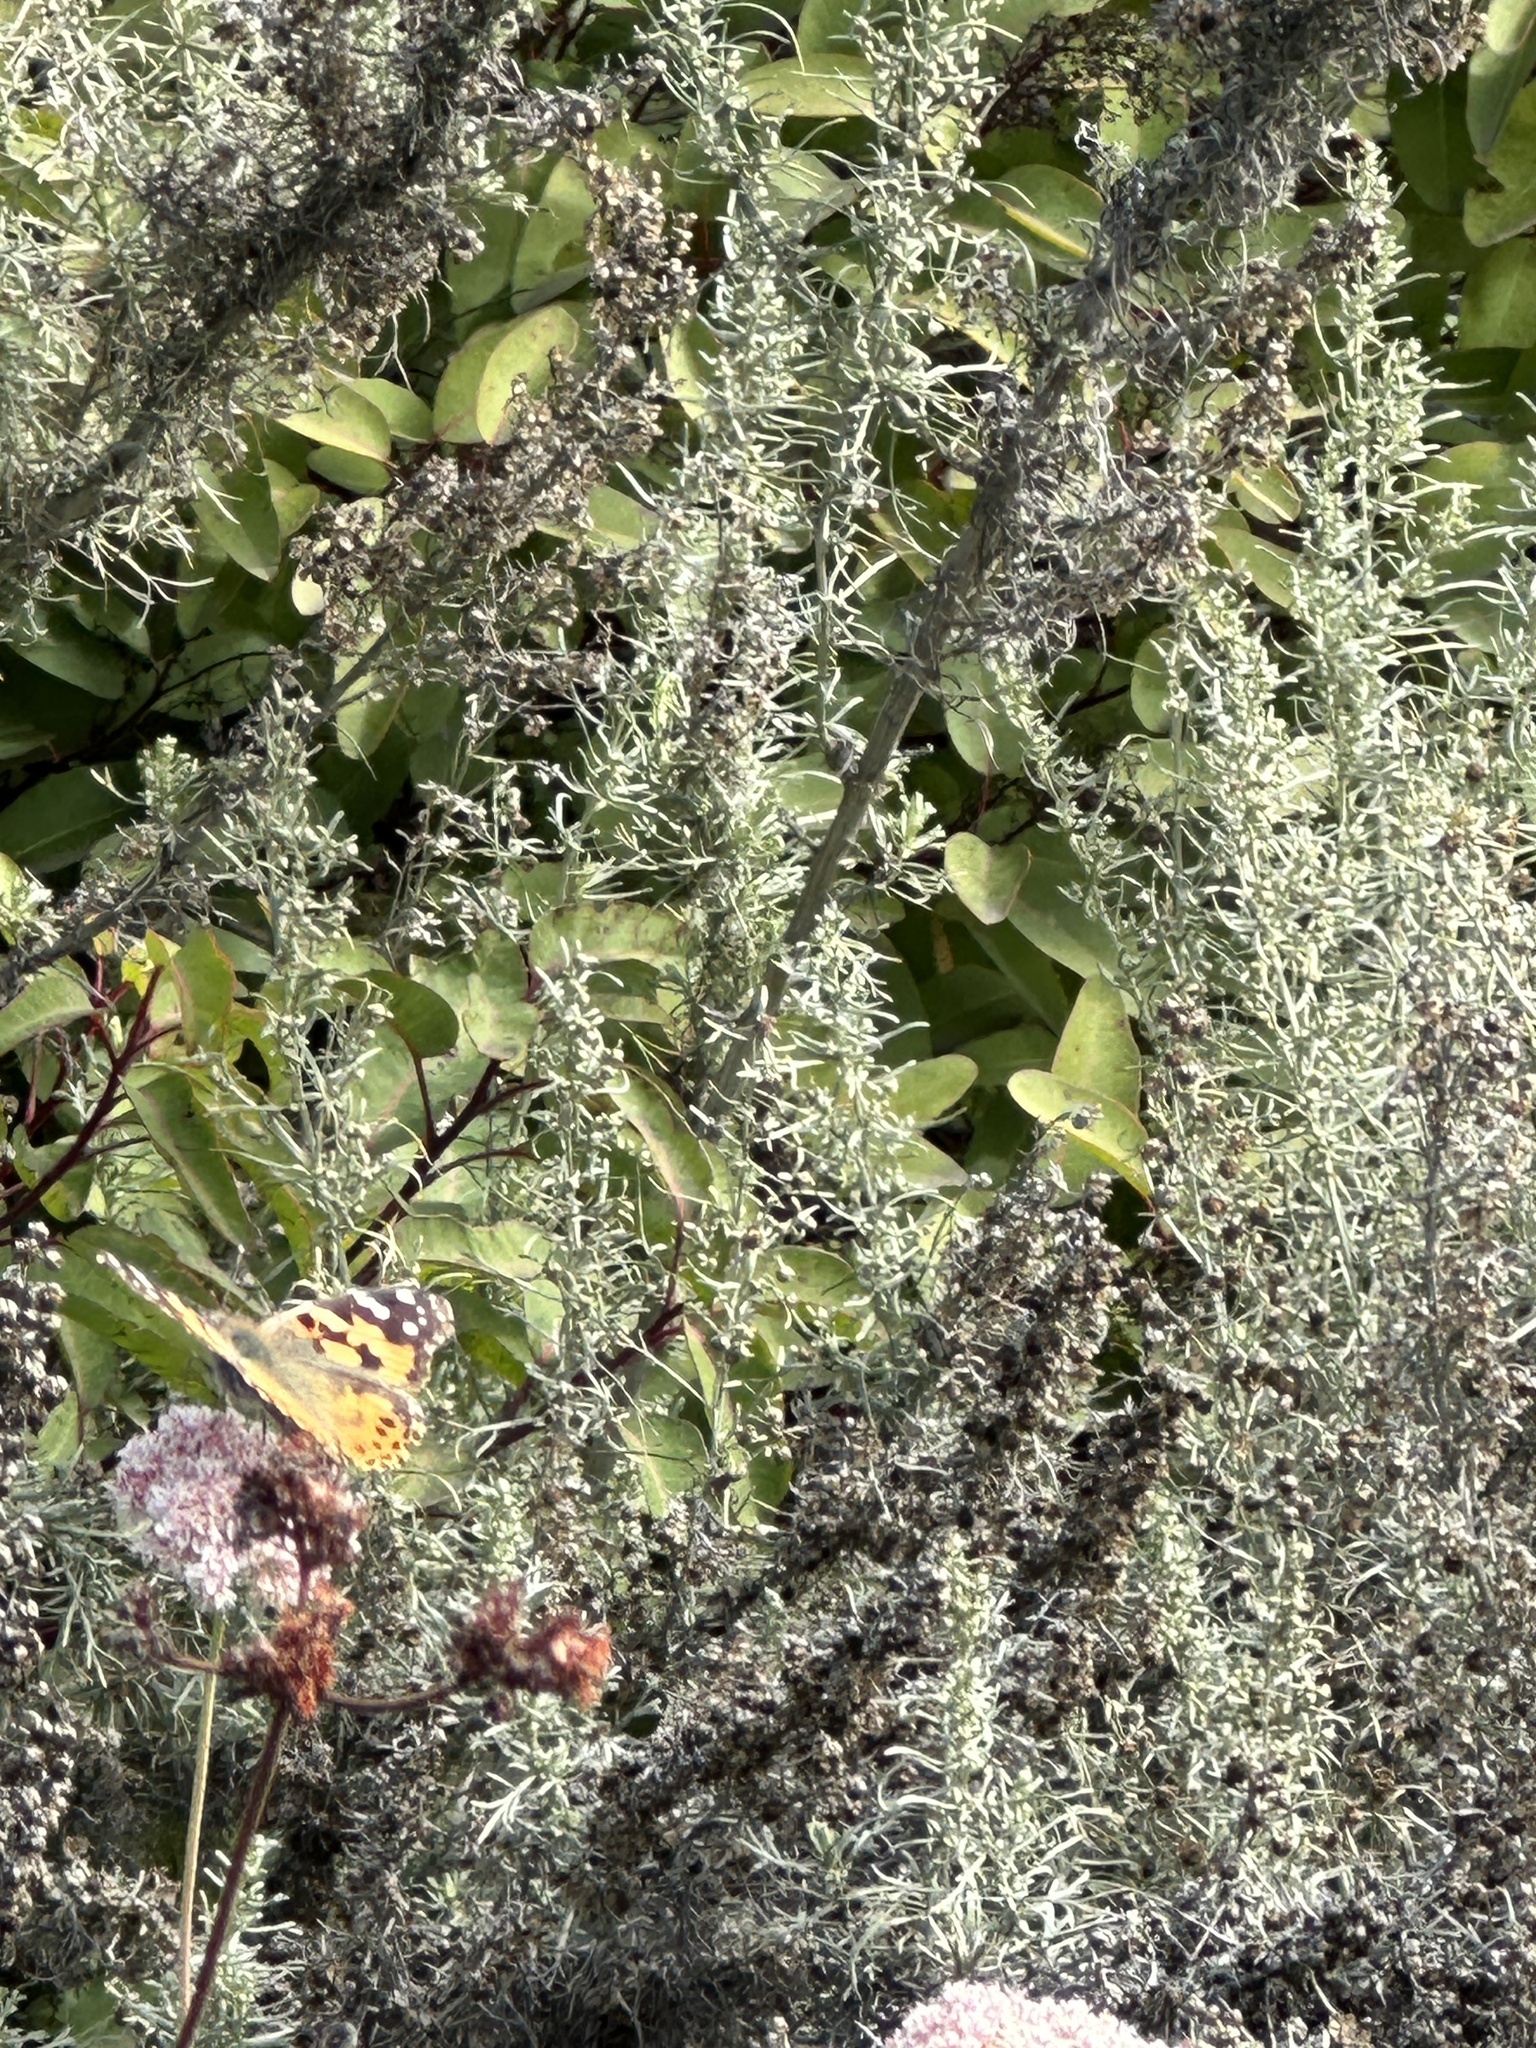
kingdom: Animalia
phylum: Arthropoda
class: Insecta
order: Lepidoptera
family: Nymphalidae
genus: Vanessa
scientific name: Vanessa cardui
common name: Painted lady
